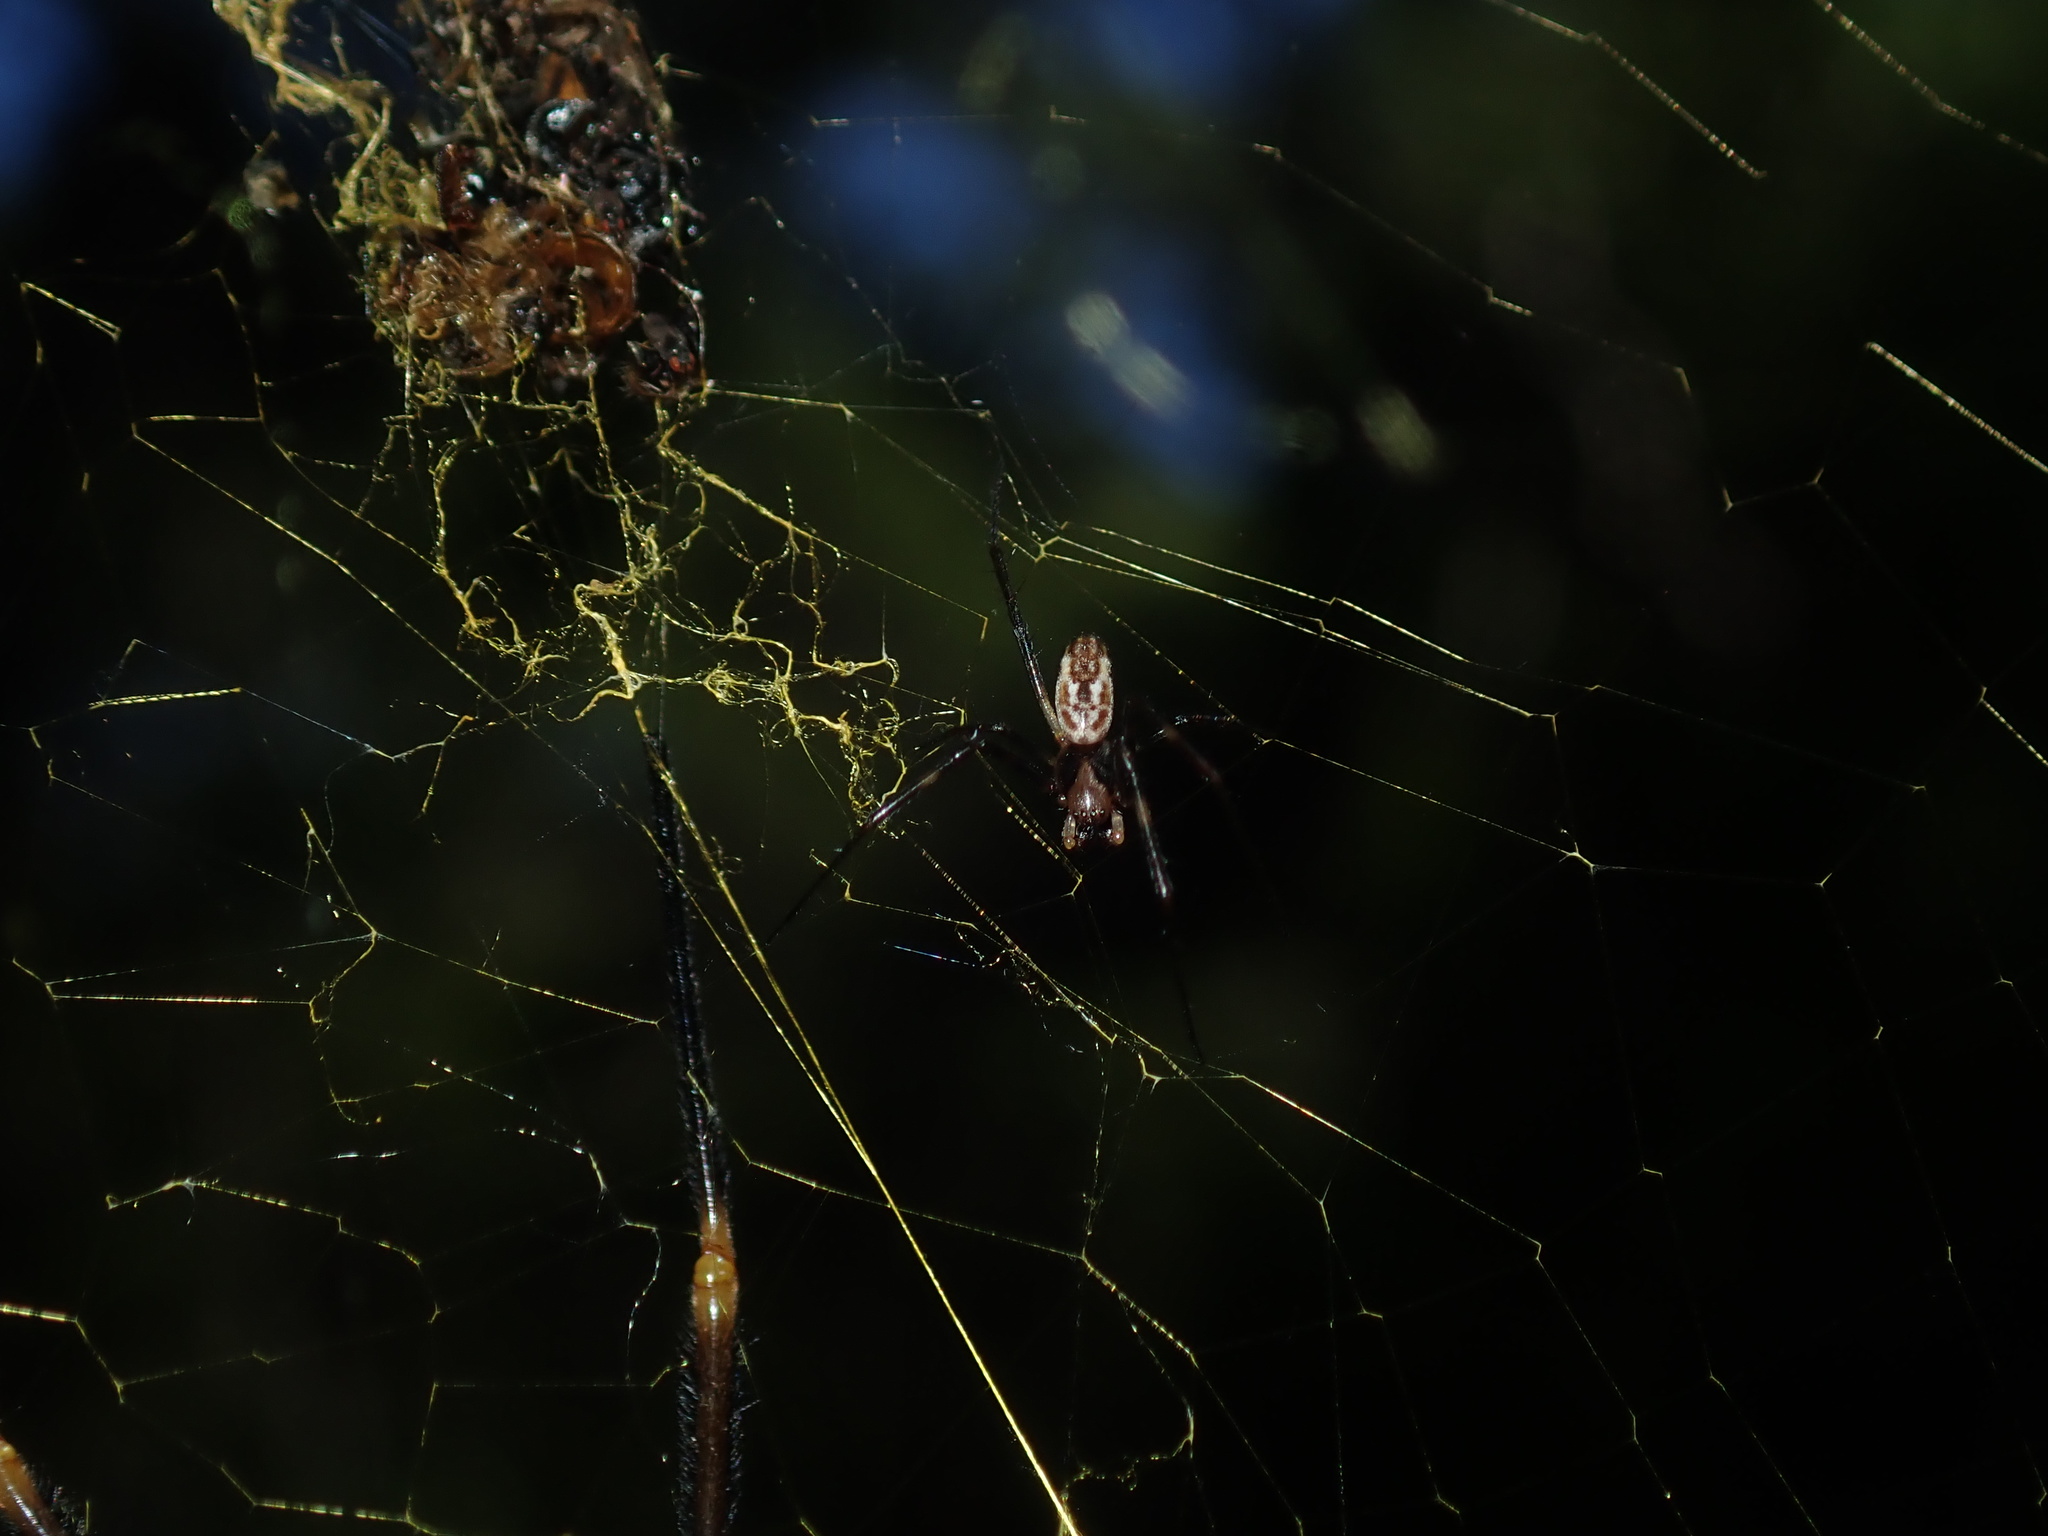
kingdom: Animalia
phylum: Arthropoda
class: Arachnida
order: Araneae
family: Araneidae
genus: Trichonephila
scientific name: Trichonephila plumipes
